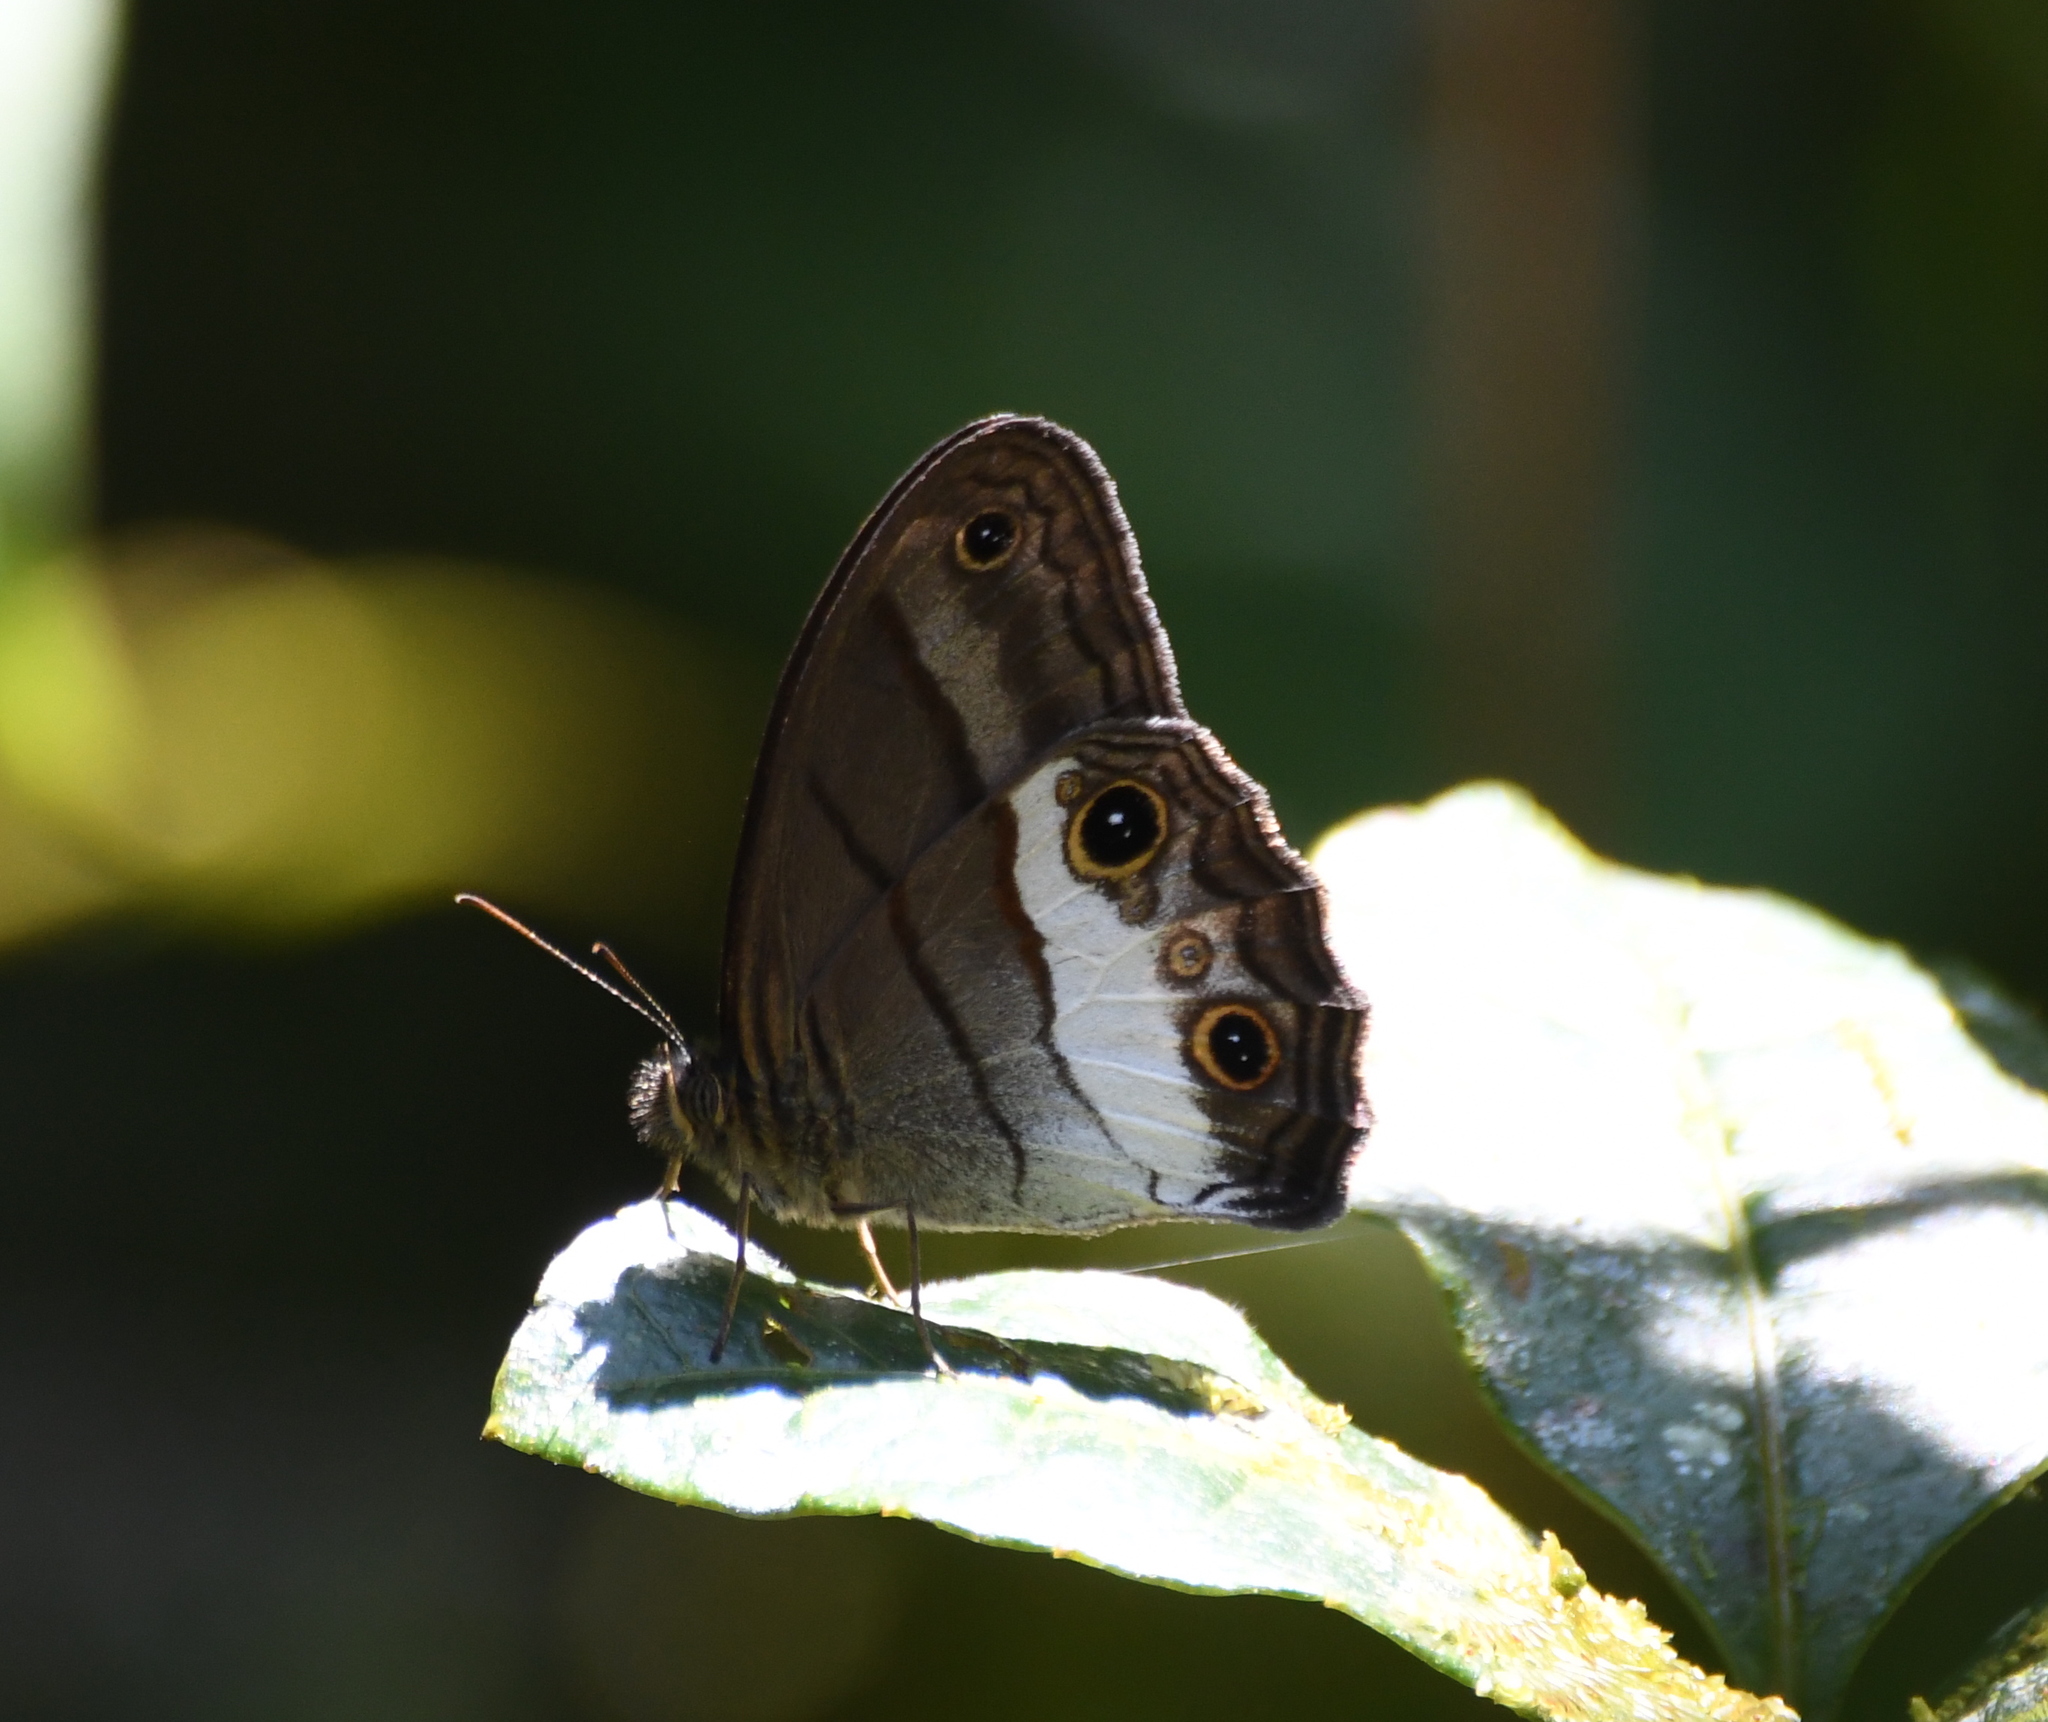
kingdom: Animalia
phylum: Arthropoda
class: Insecta
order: Lepidoptera
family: Nymphalidae
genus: Colombeia
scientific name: Colombeia
